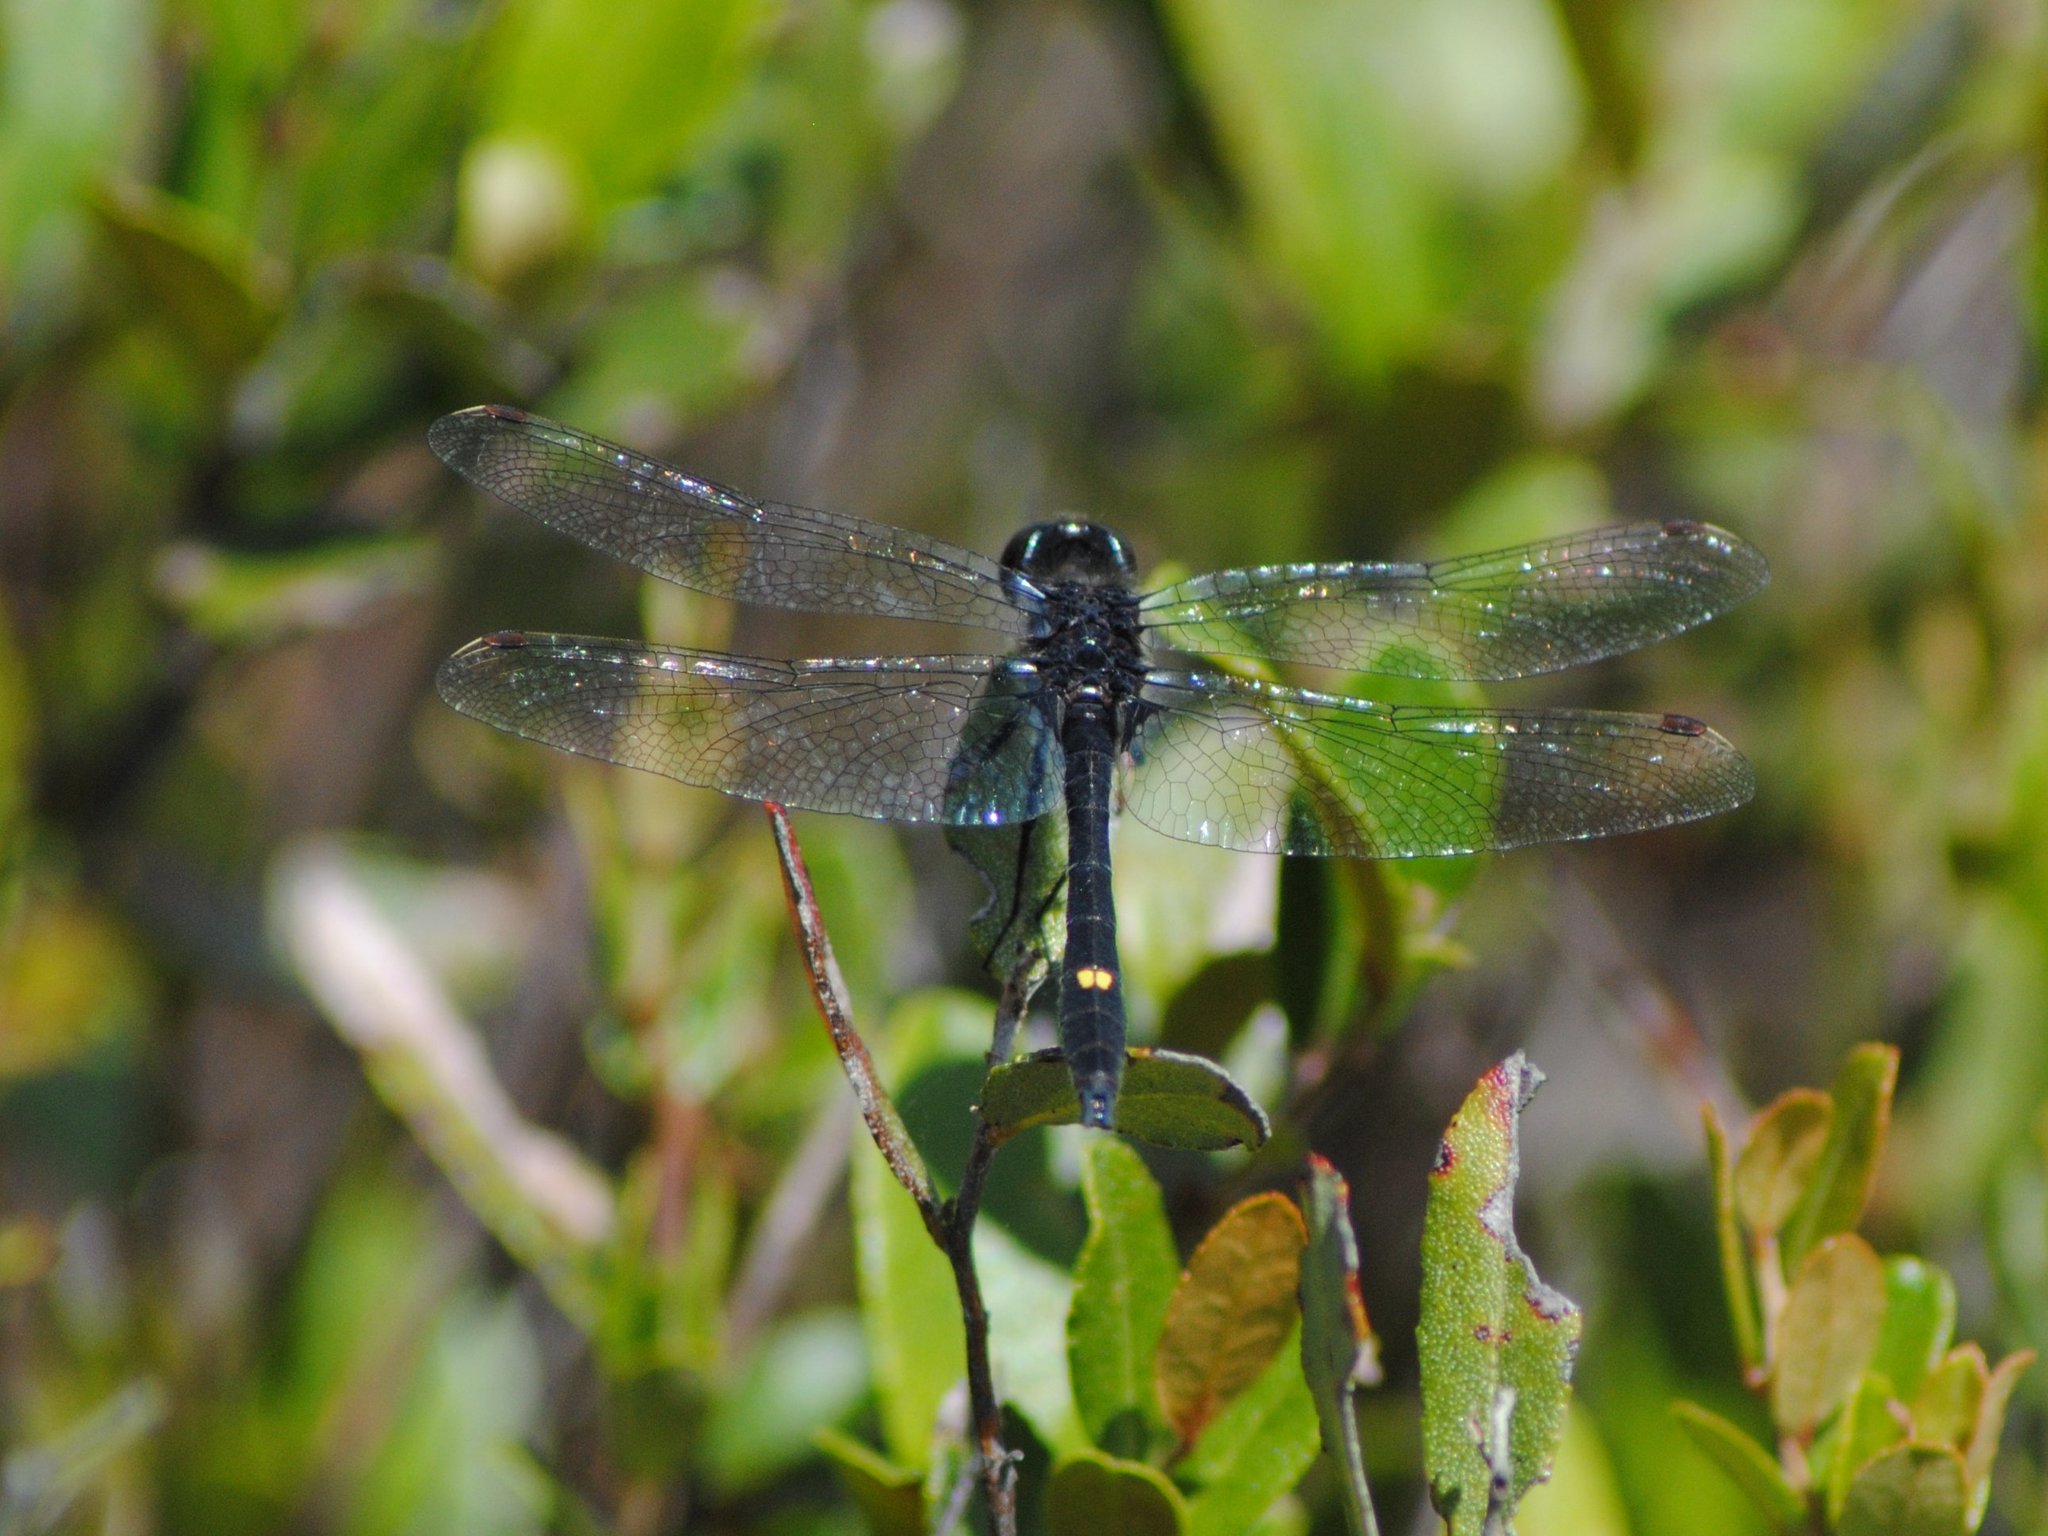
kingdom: Animalia
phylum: Arthropoda
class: Insecta
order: Odonata
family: Libellulidae
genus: Leucorrhinia
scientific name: Leucorrhinia intacta
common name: Dot-tailed whiteface
